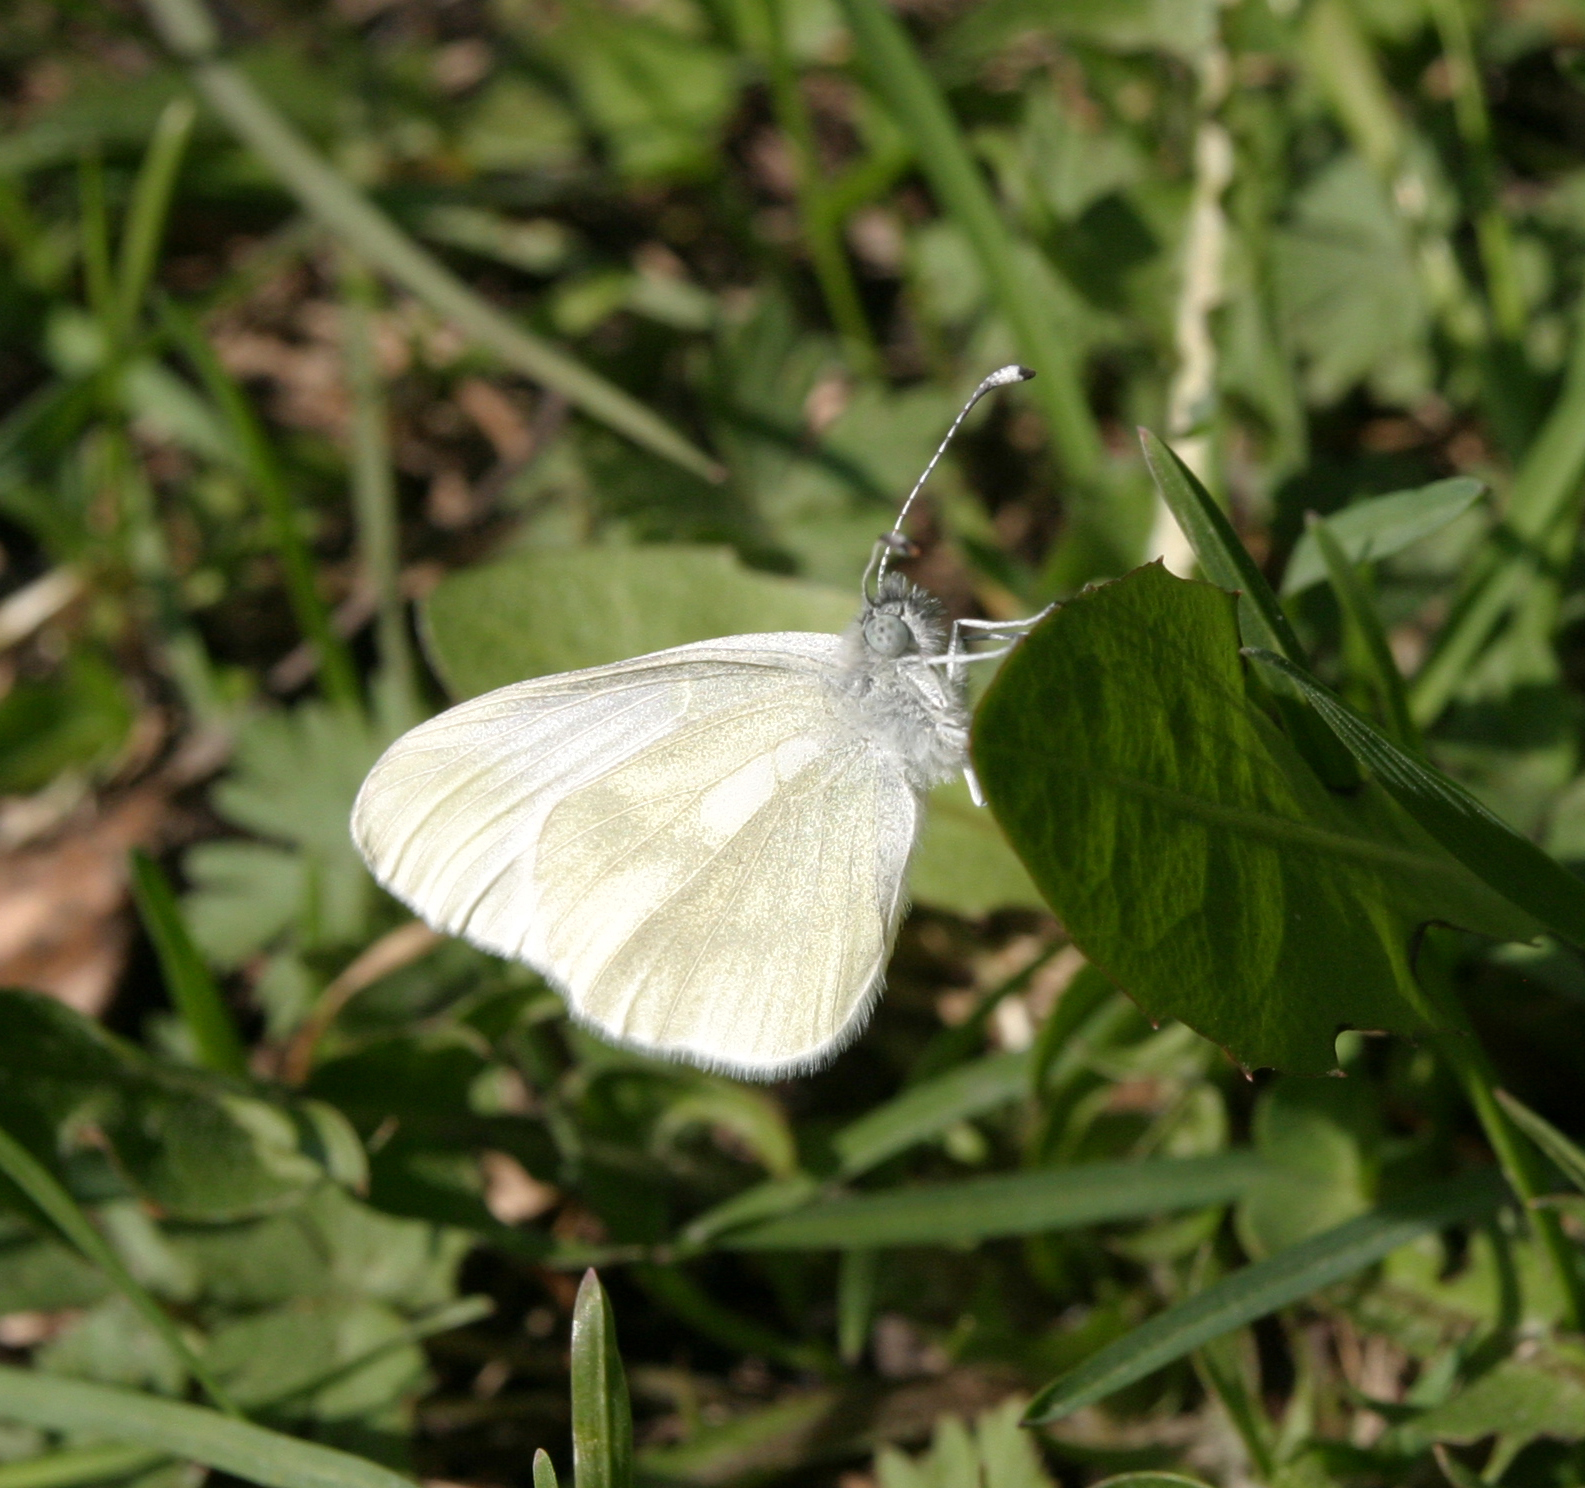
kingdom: Animalia
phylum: Arthropoda
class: Insecta
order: Lepidoptera
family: Pieridae
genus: Leptidea
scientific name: Leptidea sinapis
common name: Wood white
